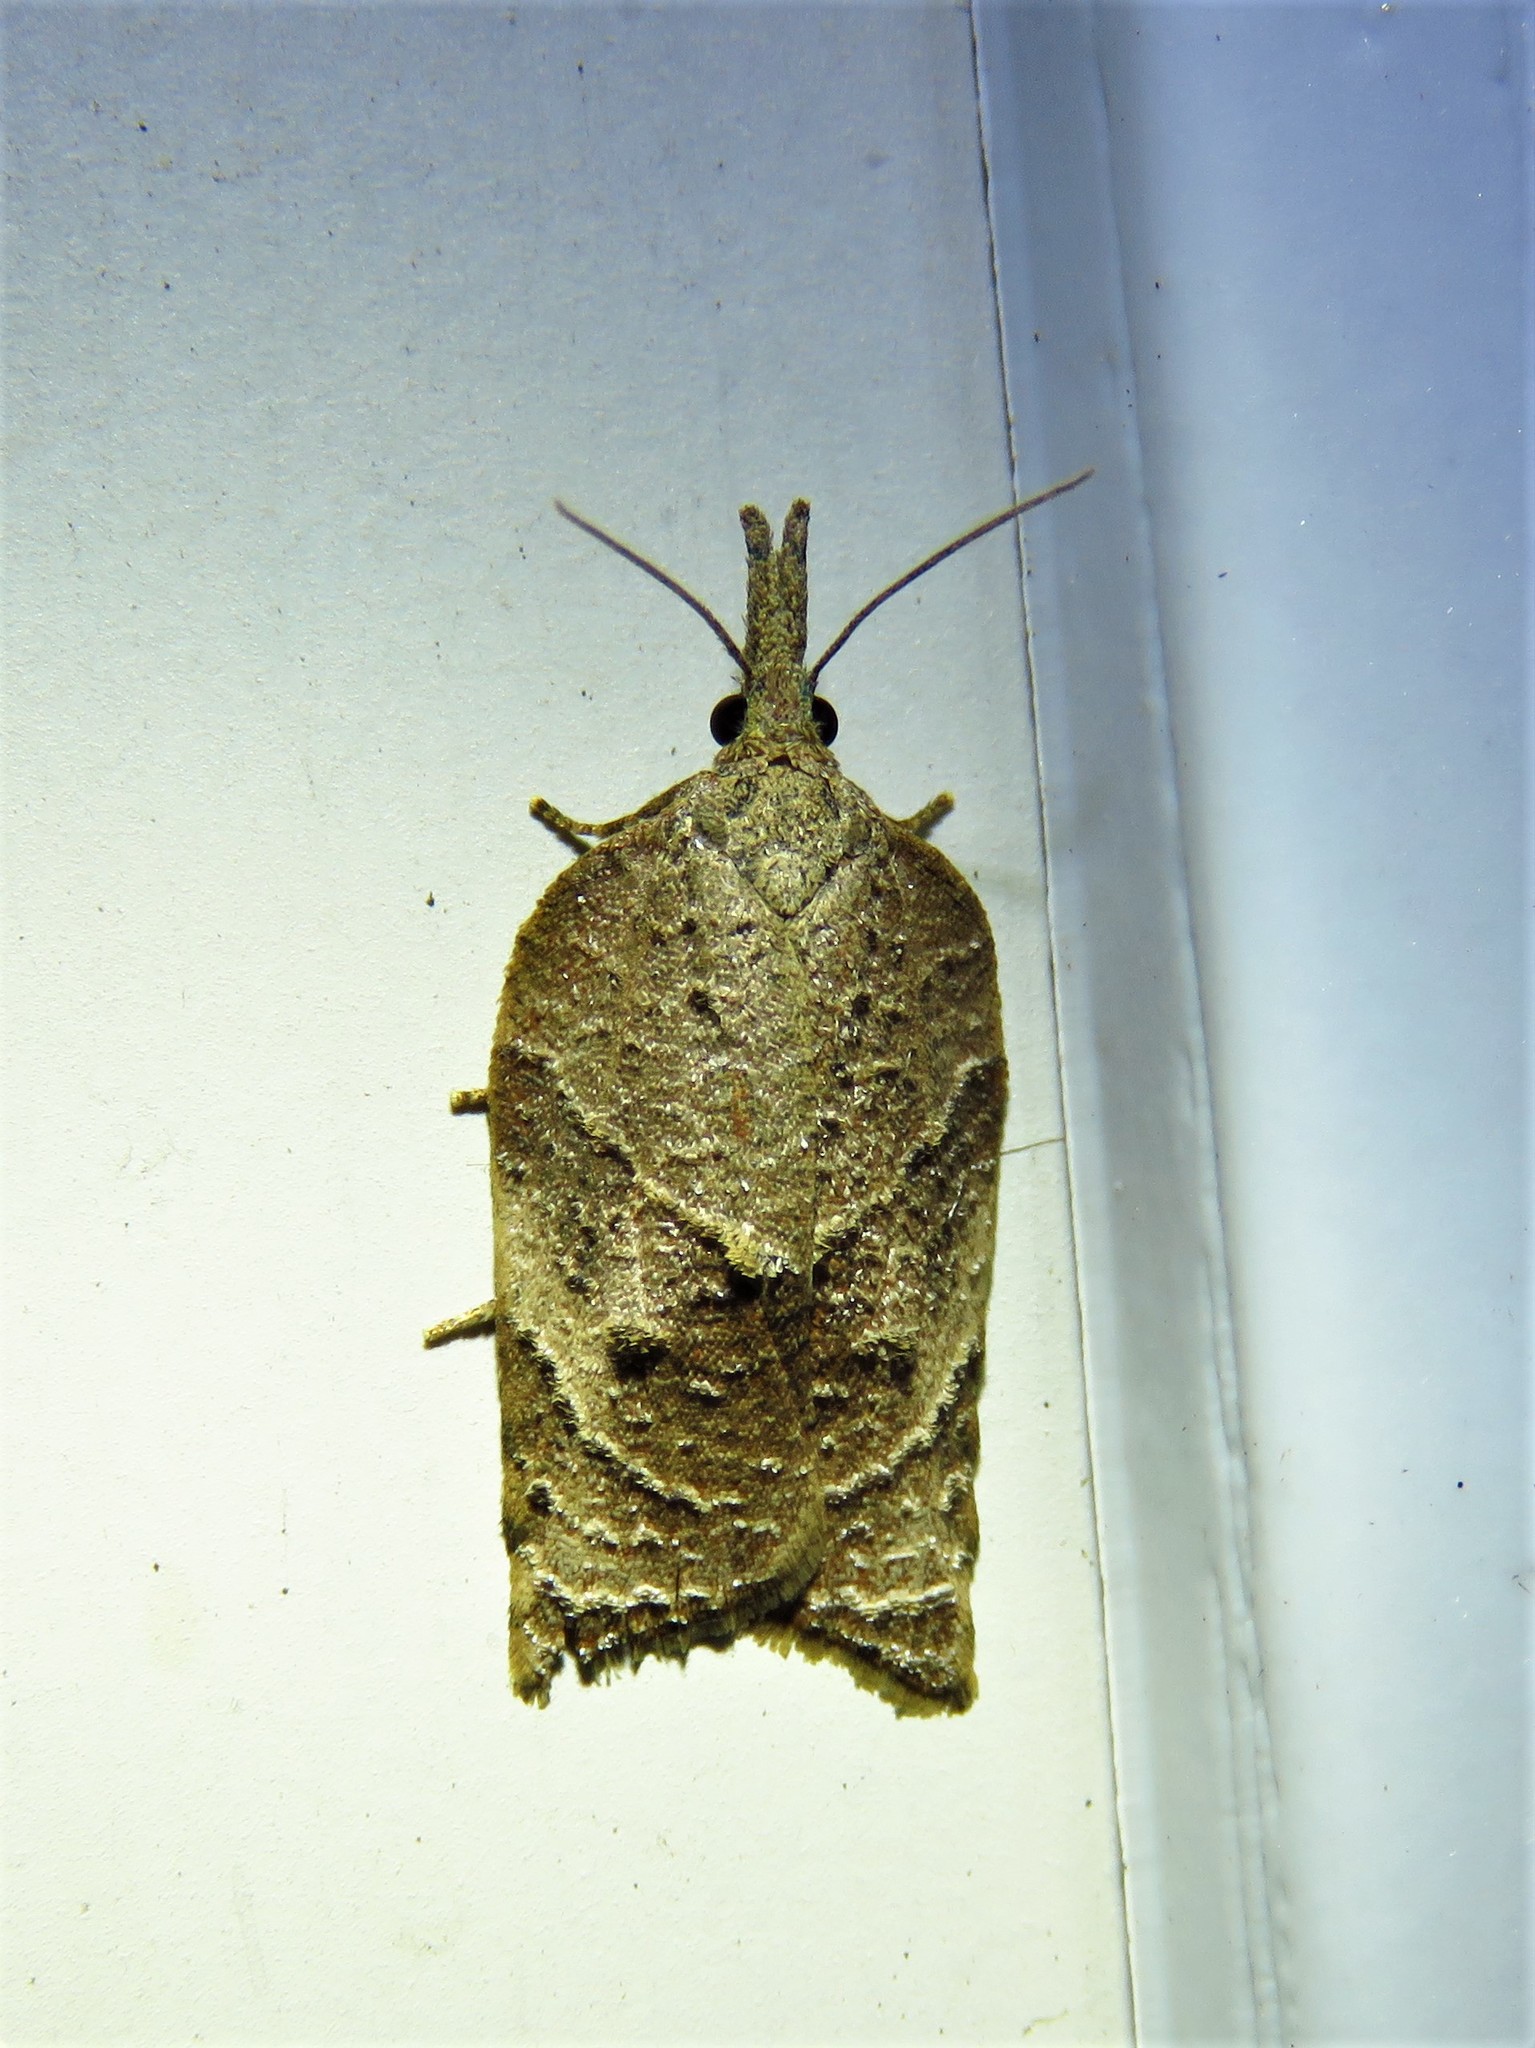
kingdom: Animalia
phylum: Arthropoda
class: Insecta
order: Lepidoptera
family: Tortricidae
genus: Platynota
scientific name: Platynota rostrana
